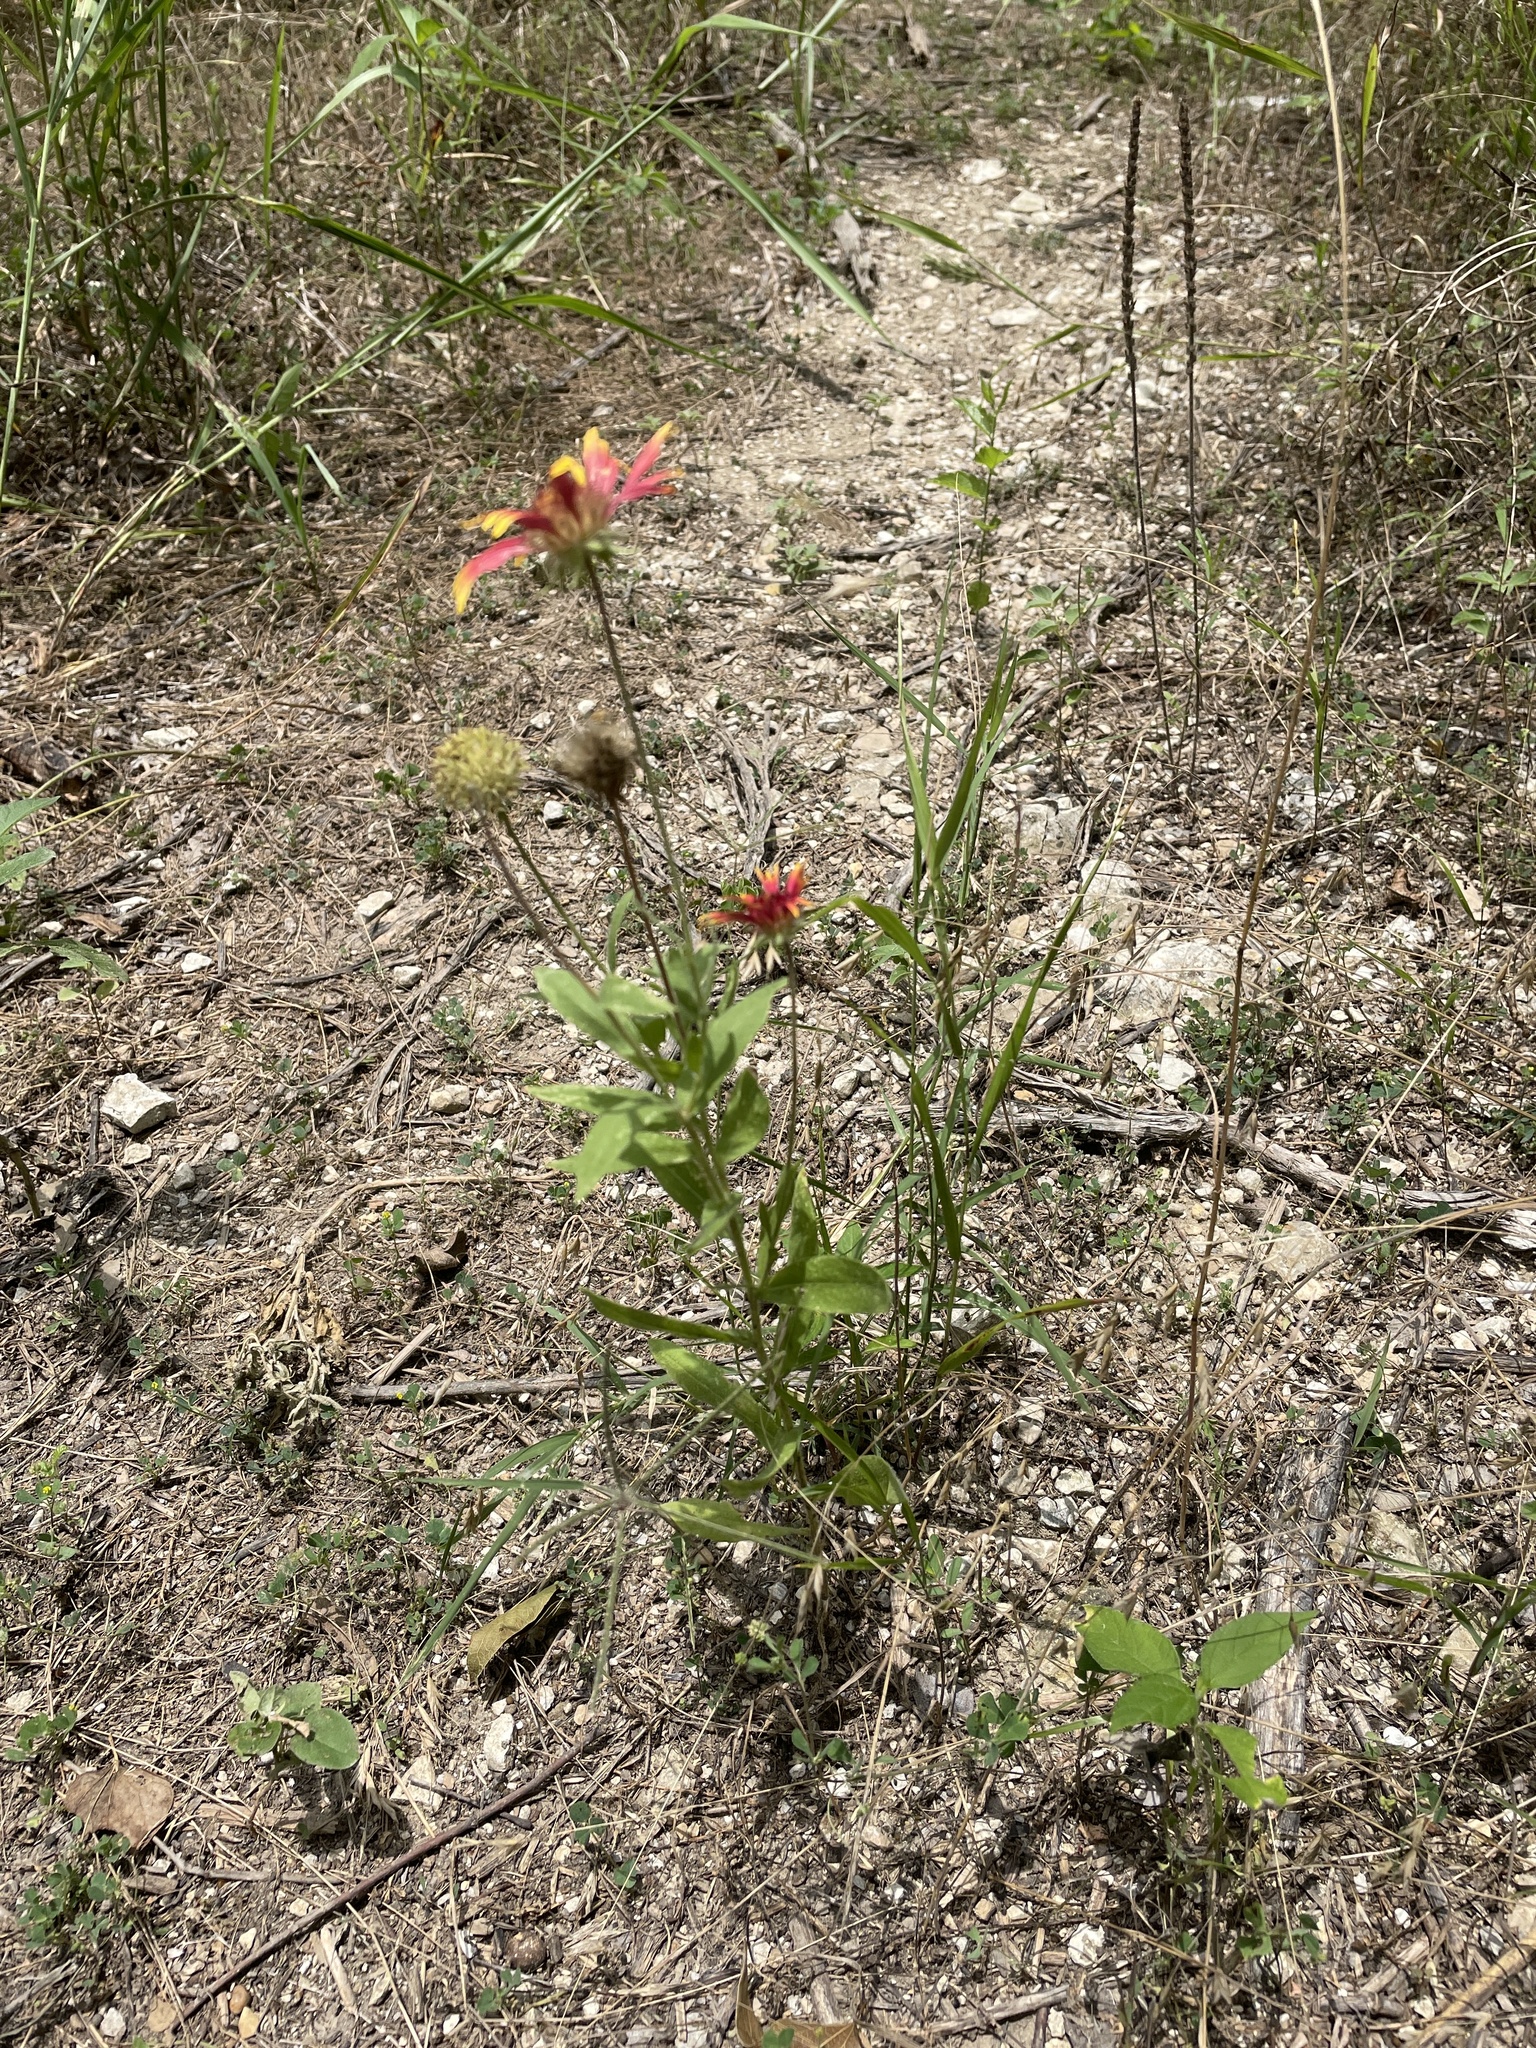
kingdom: Plantae
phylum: Tracheophyta
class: Magnoliopsida
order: Asterales
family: Asteraceae
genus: Gaillardia
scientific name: Gaillardia pulchella
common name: Firewheel
